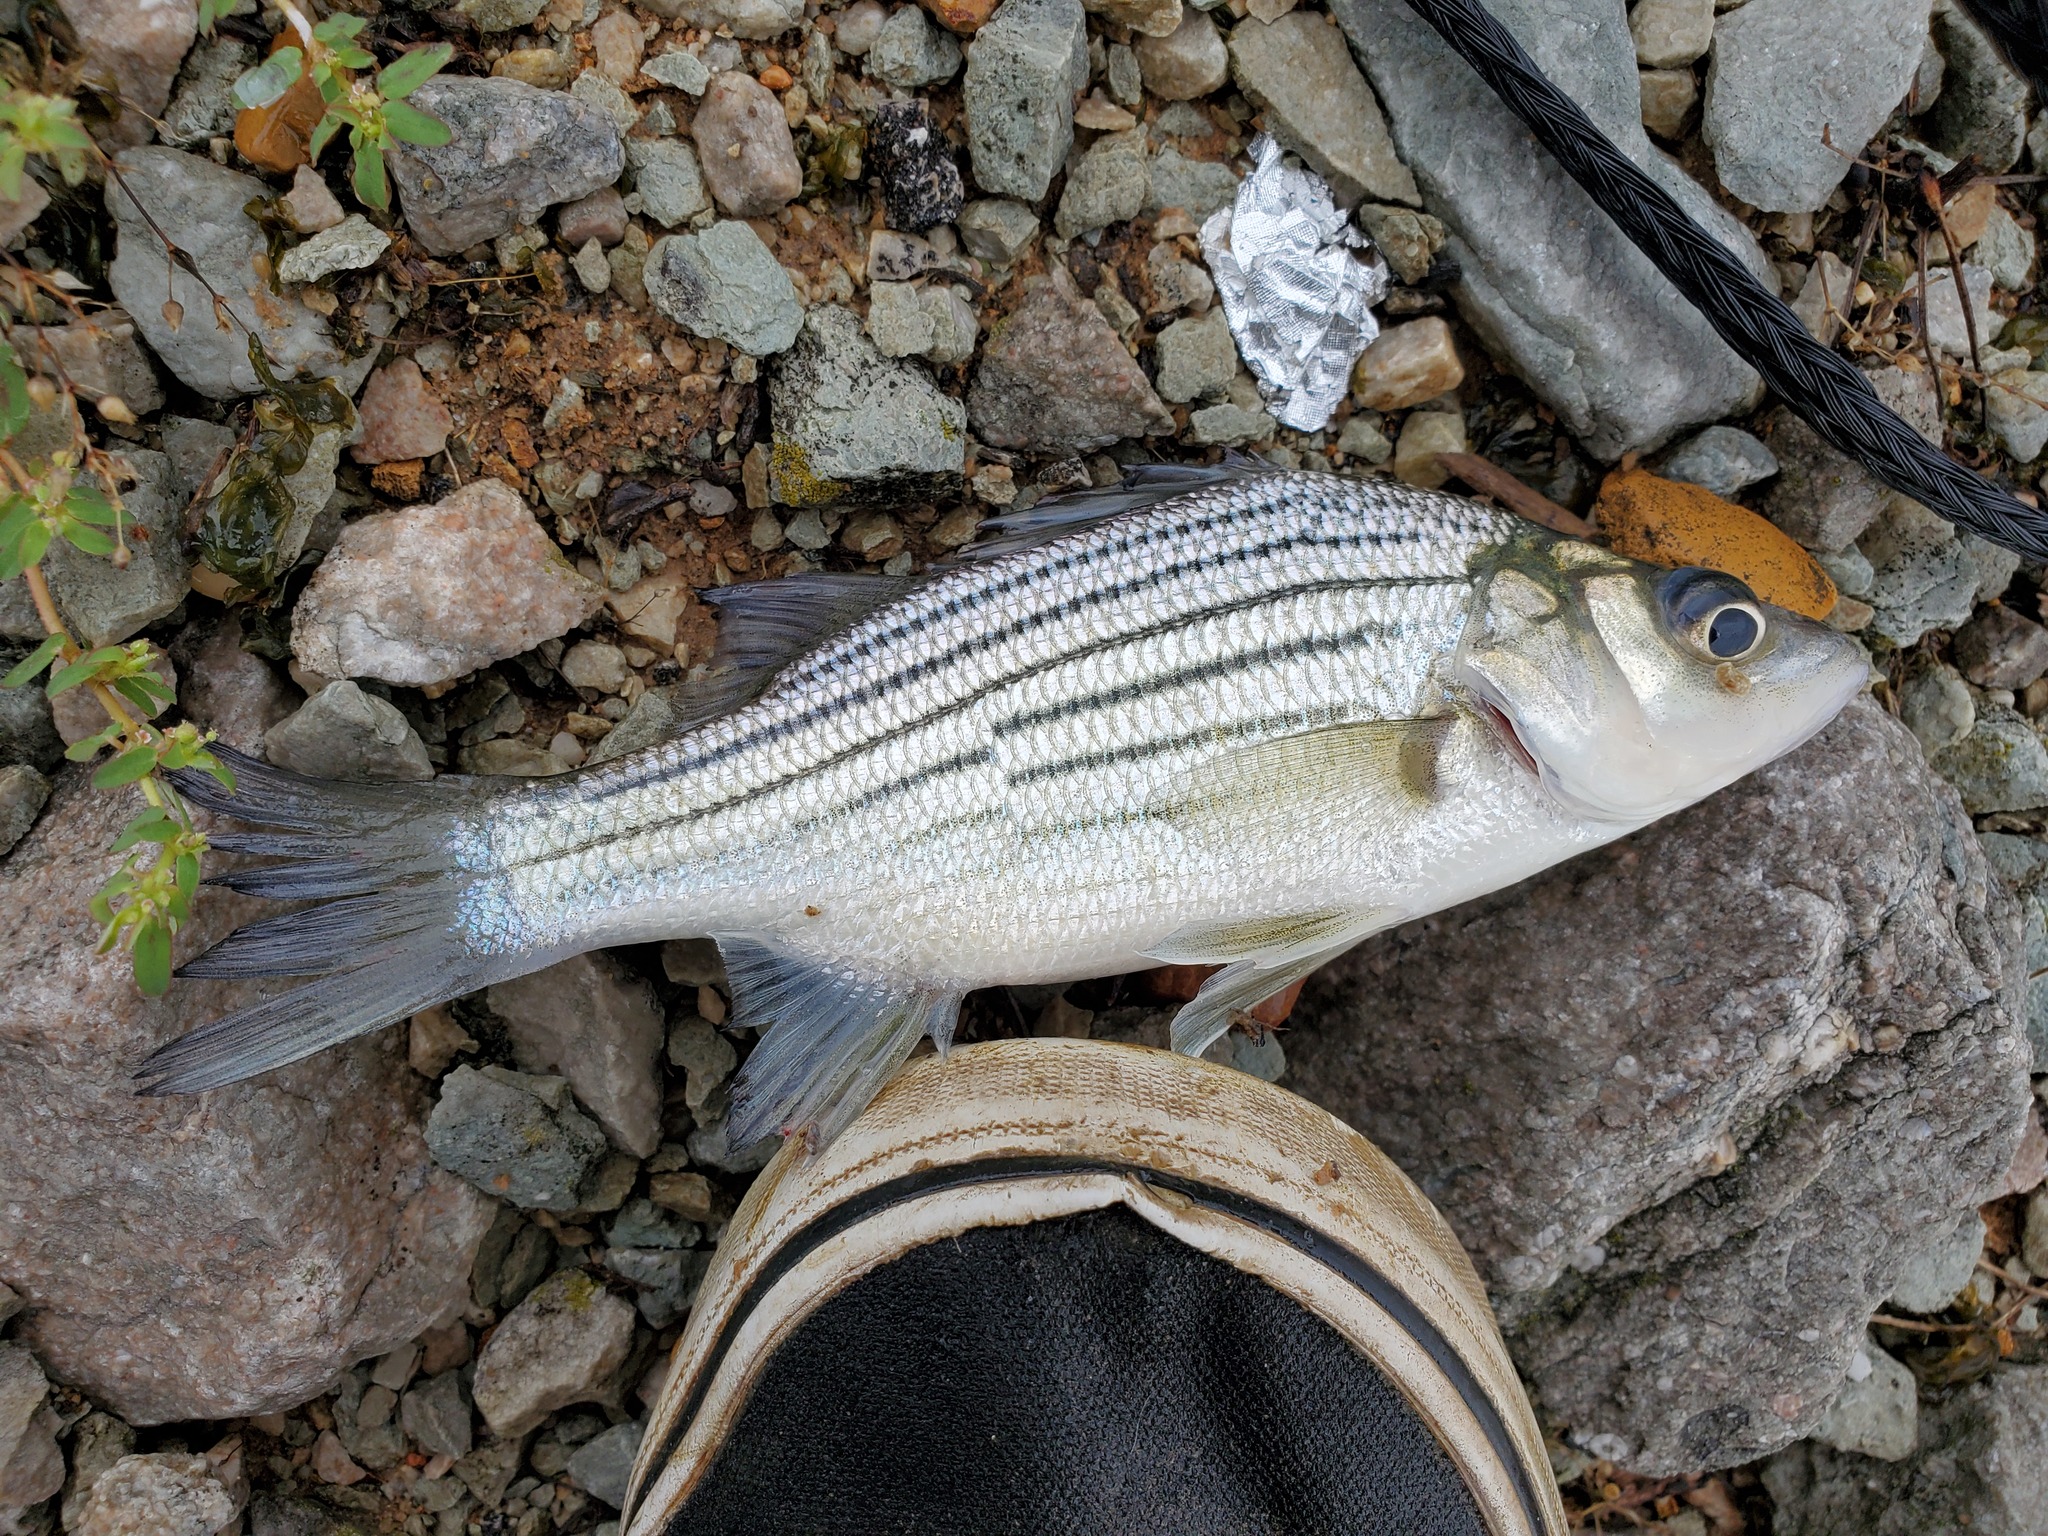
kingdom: Animalia
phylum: Chordata
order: Perciformes
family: Moronidae
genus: Morone
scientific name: Morone mississippiensis
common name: Yellow bass
